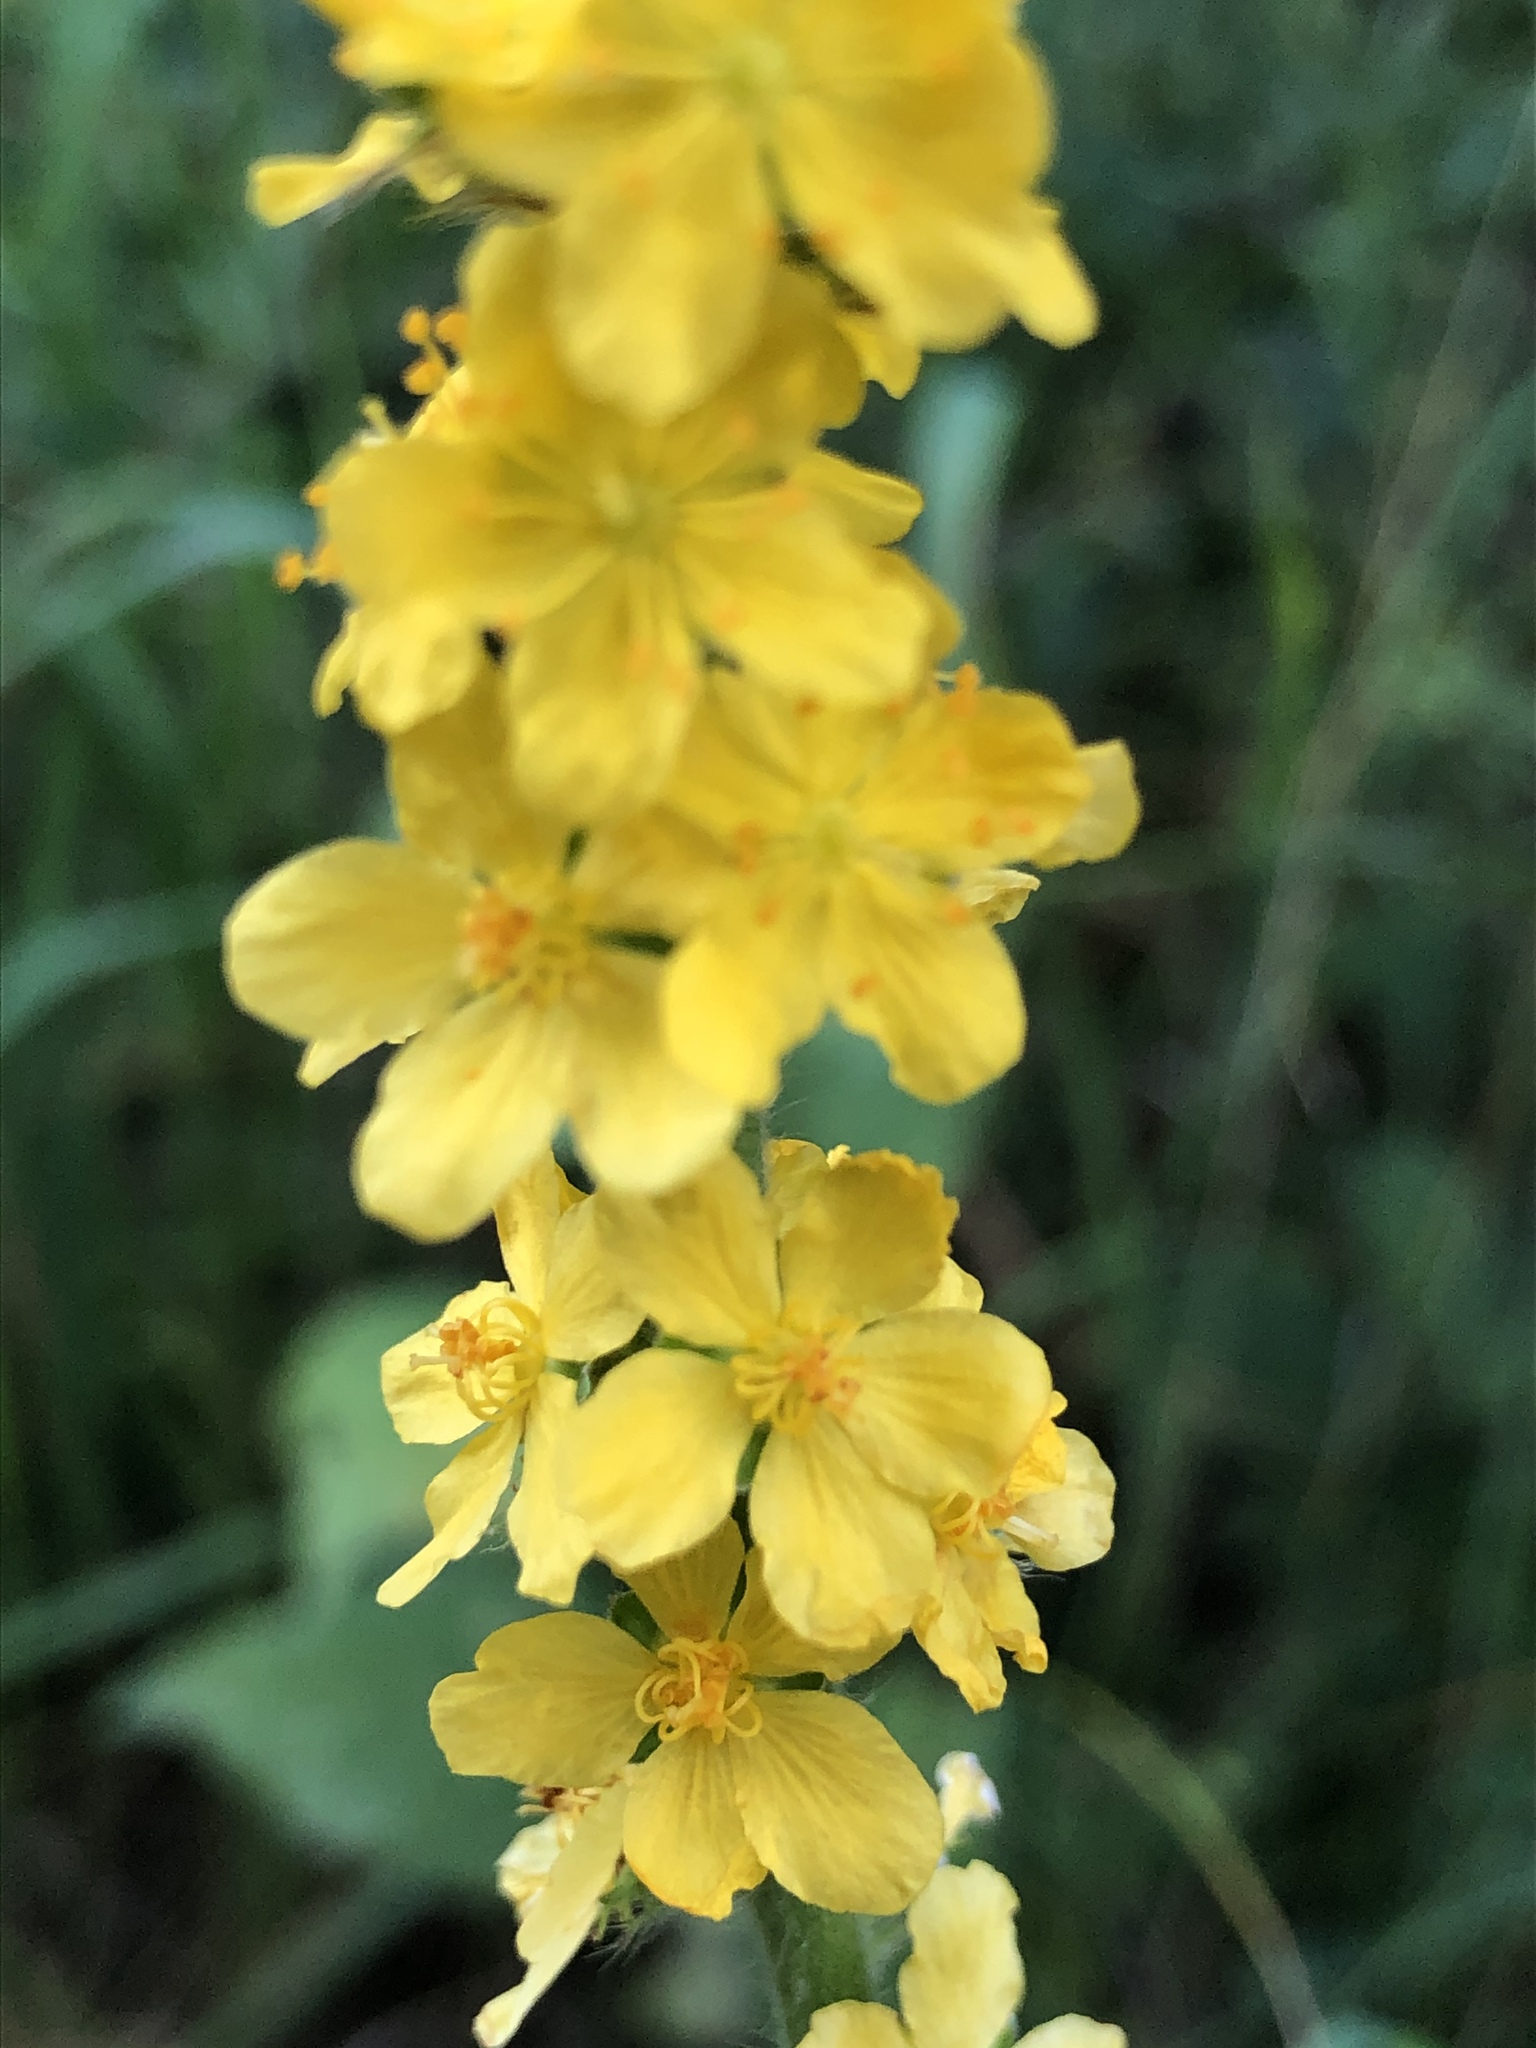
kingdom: Plantae
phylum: Tracheophyta
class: Magnoliopsida
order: Rosales
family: Rosaceae
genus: Agrimonia
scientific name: Agrimonia eupatoria
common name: Agrimony
